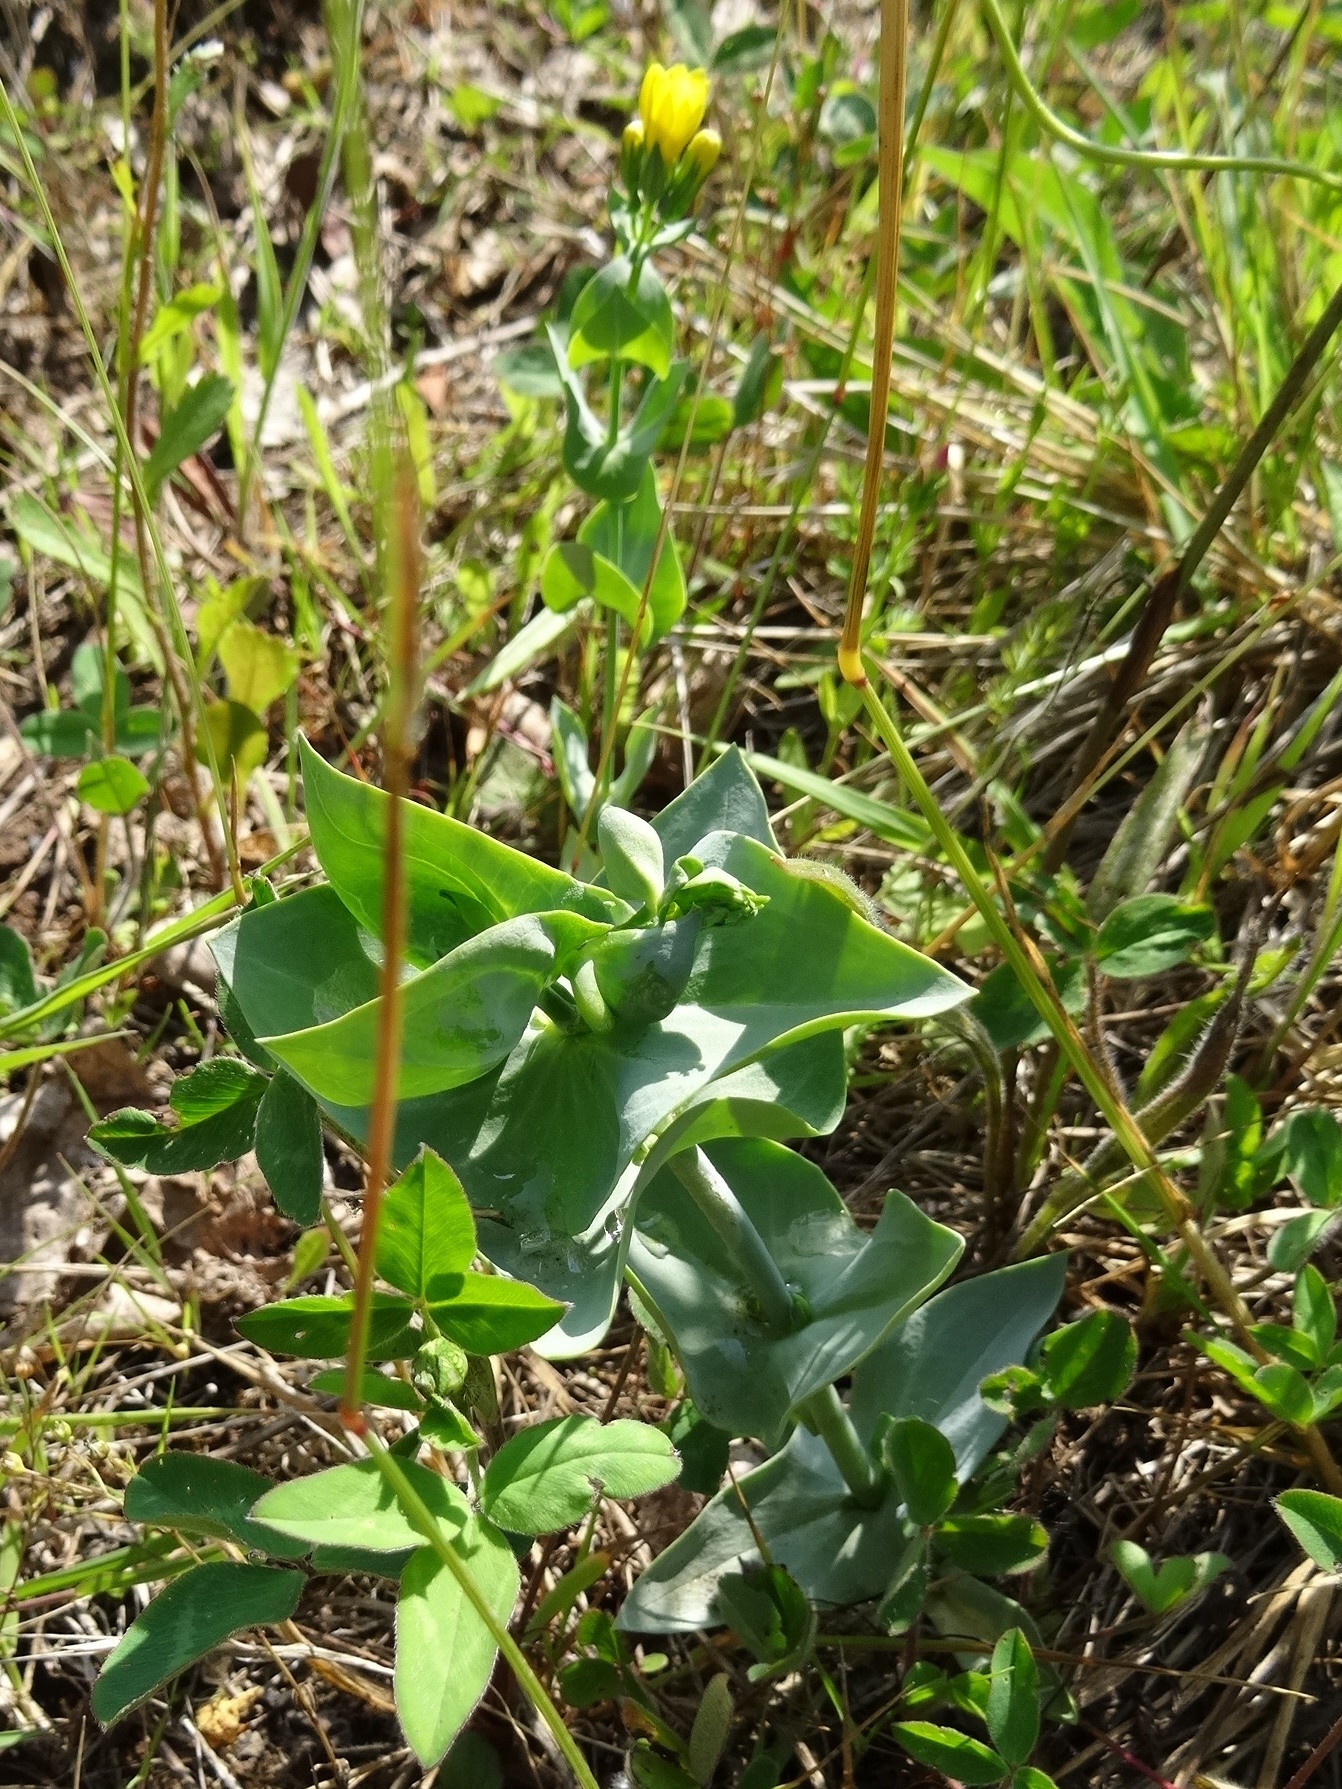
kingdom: Plantae
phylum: Tracheophyta
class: Magnoliopsida
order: Gentianales
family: Gentianaceae
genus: Blackstonia
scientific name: Blackstonia perfoliata
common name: Yellow-wort
